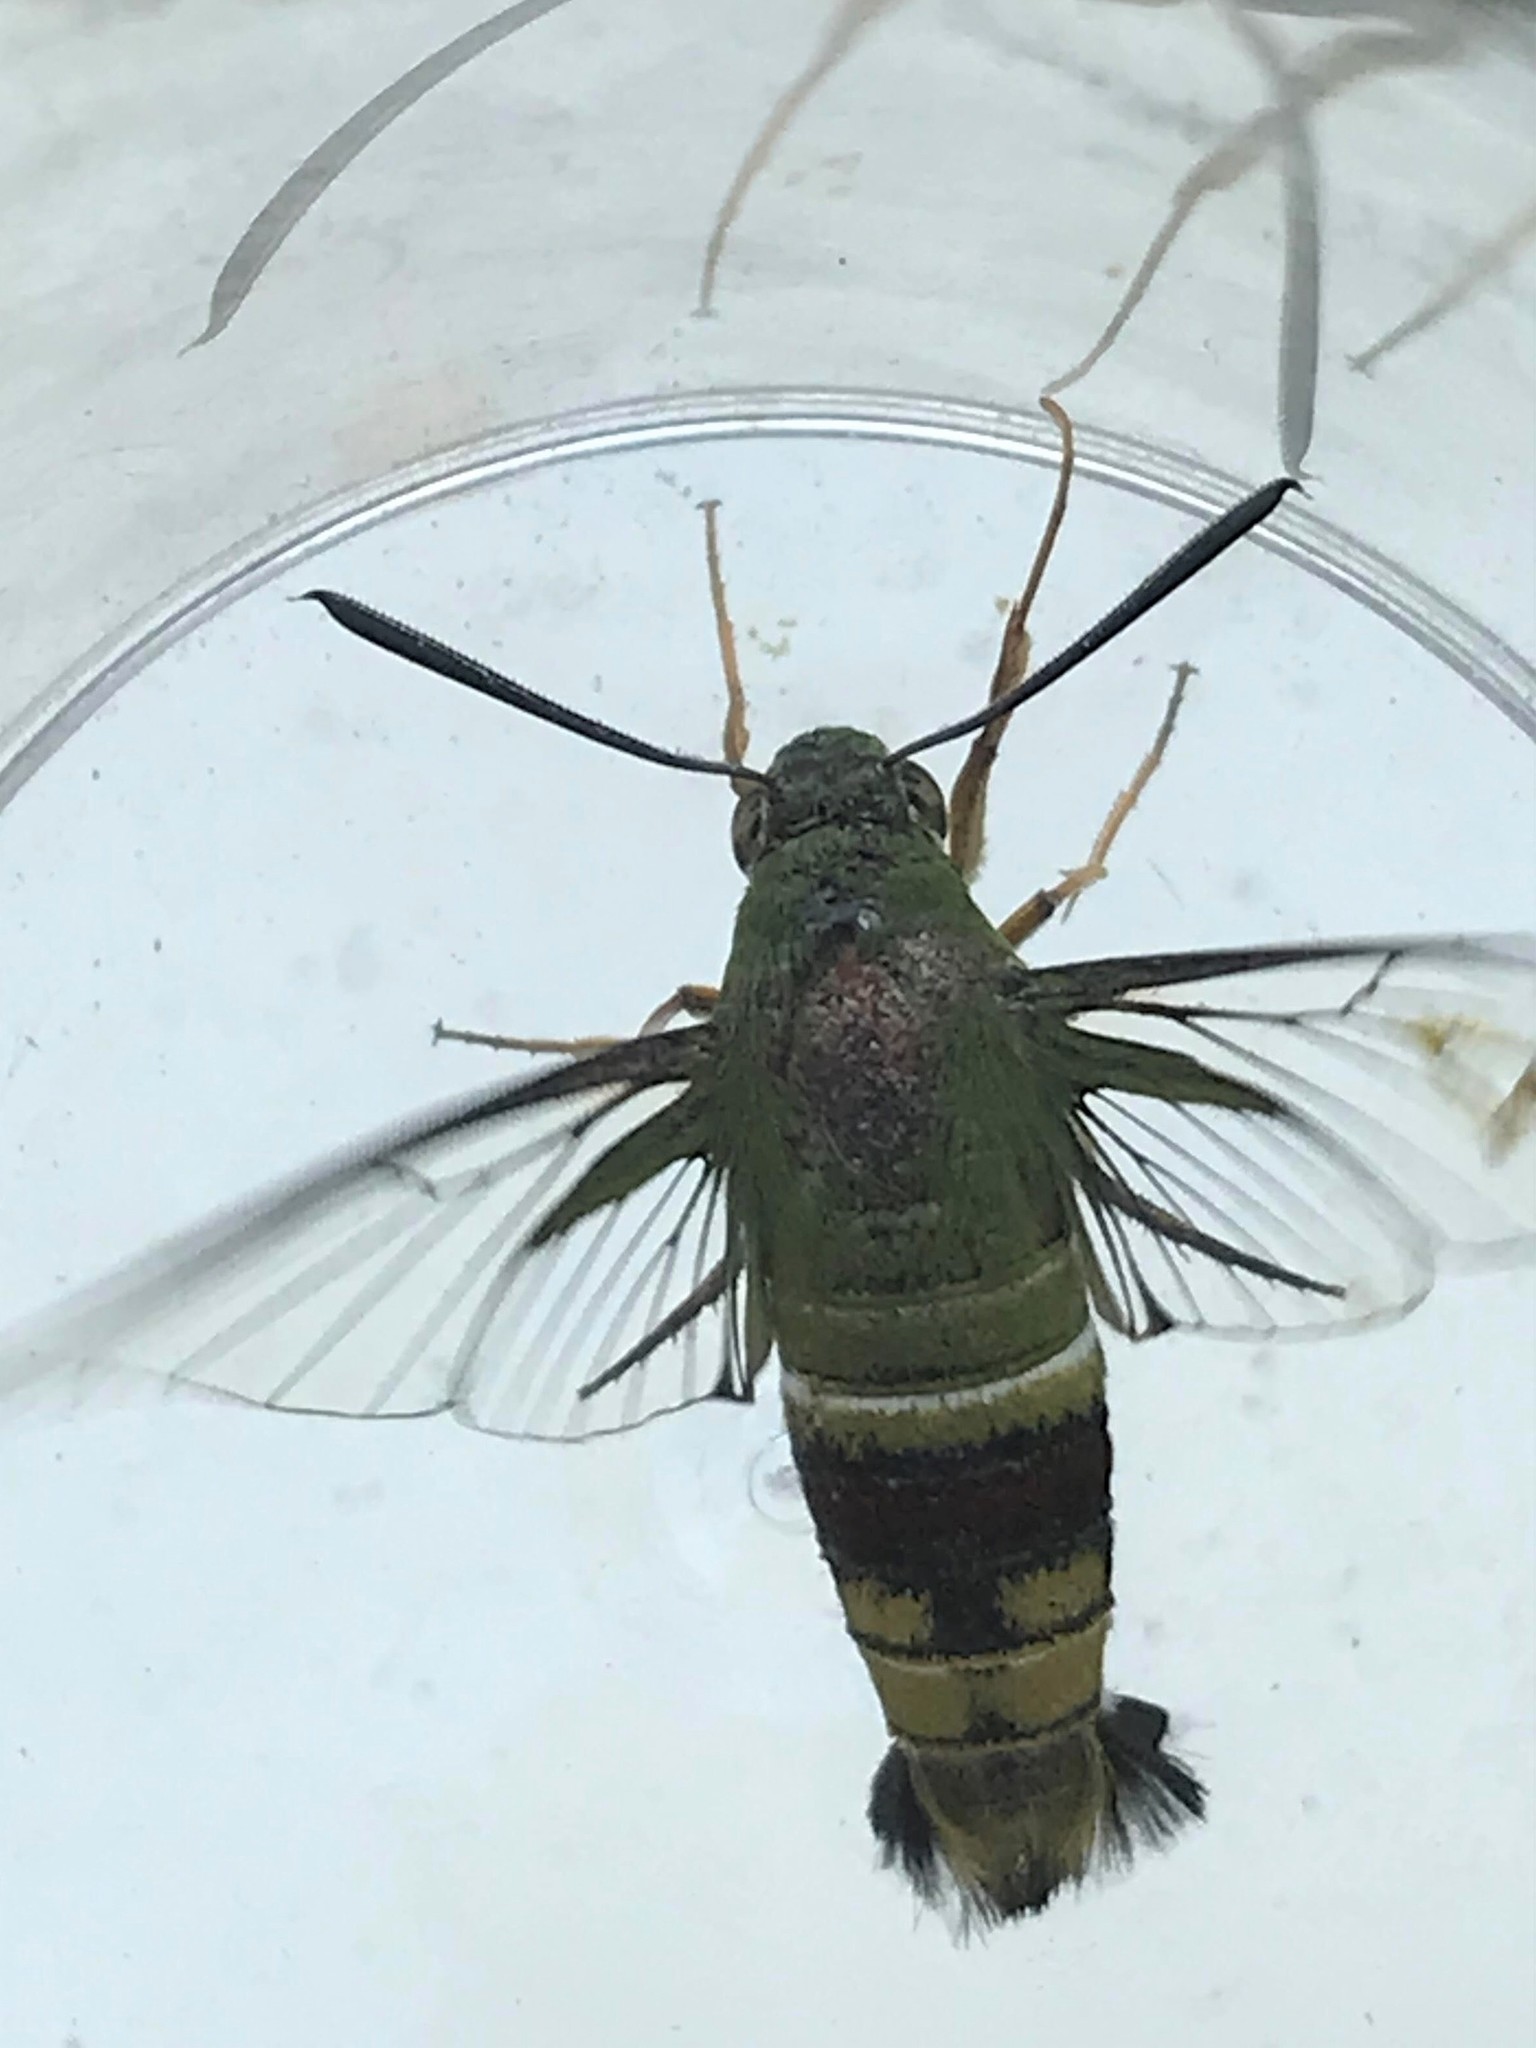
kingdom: Animalia
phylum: Arthropoda
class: Insecta
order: Lepidoptera
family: Sphingidae
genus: Cephonodes
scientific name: Cephonodes
